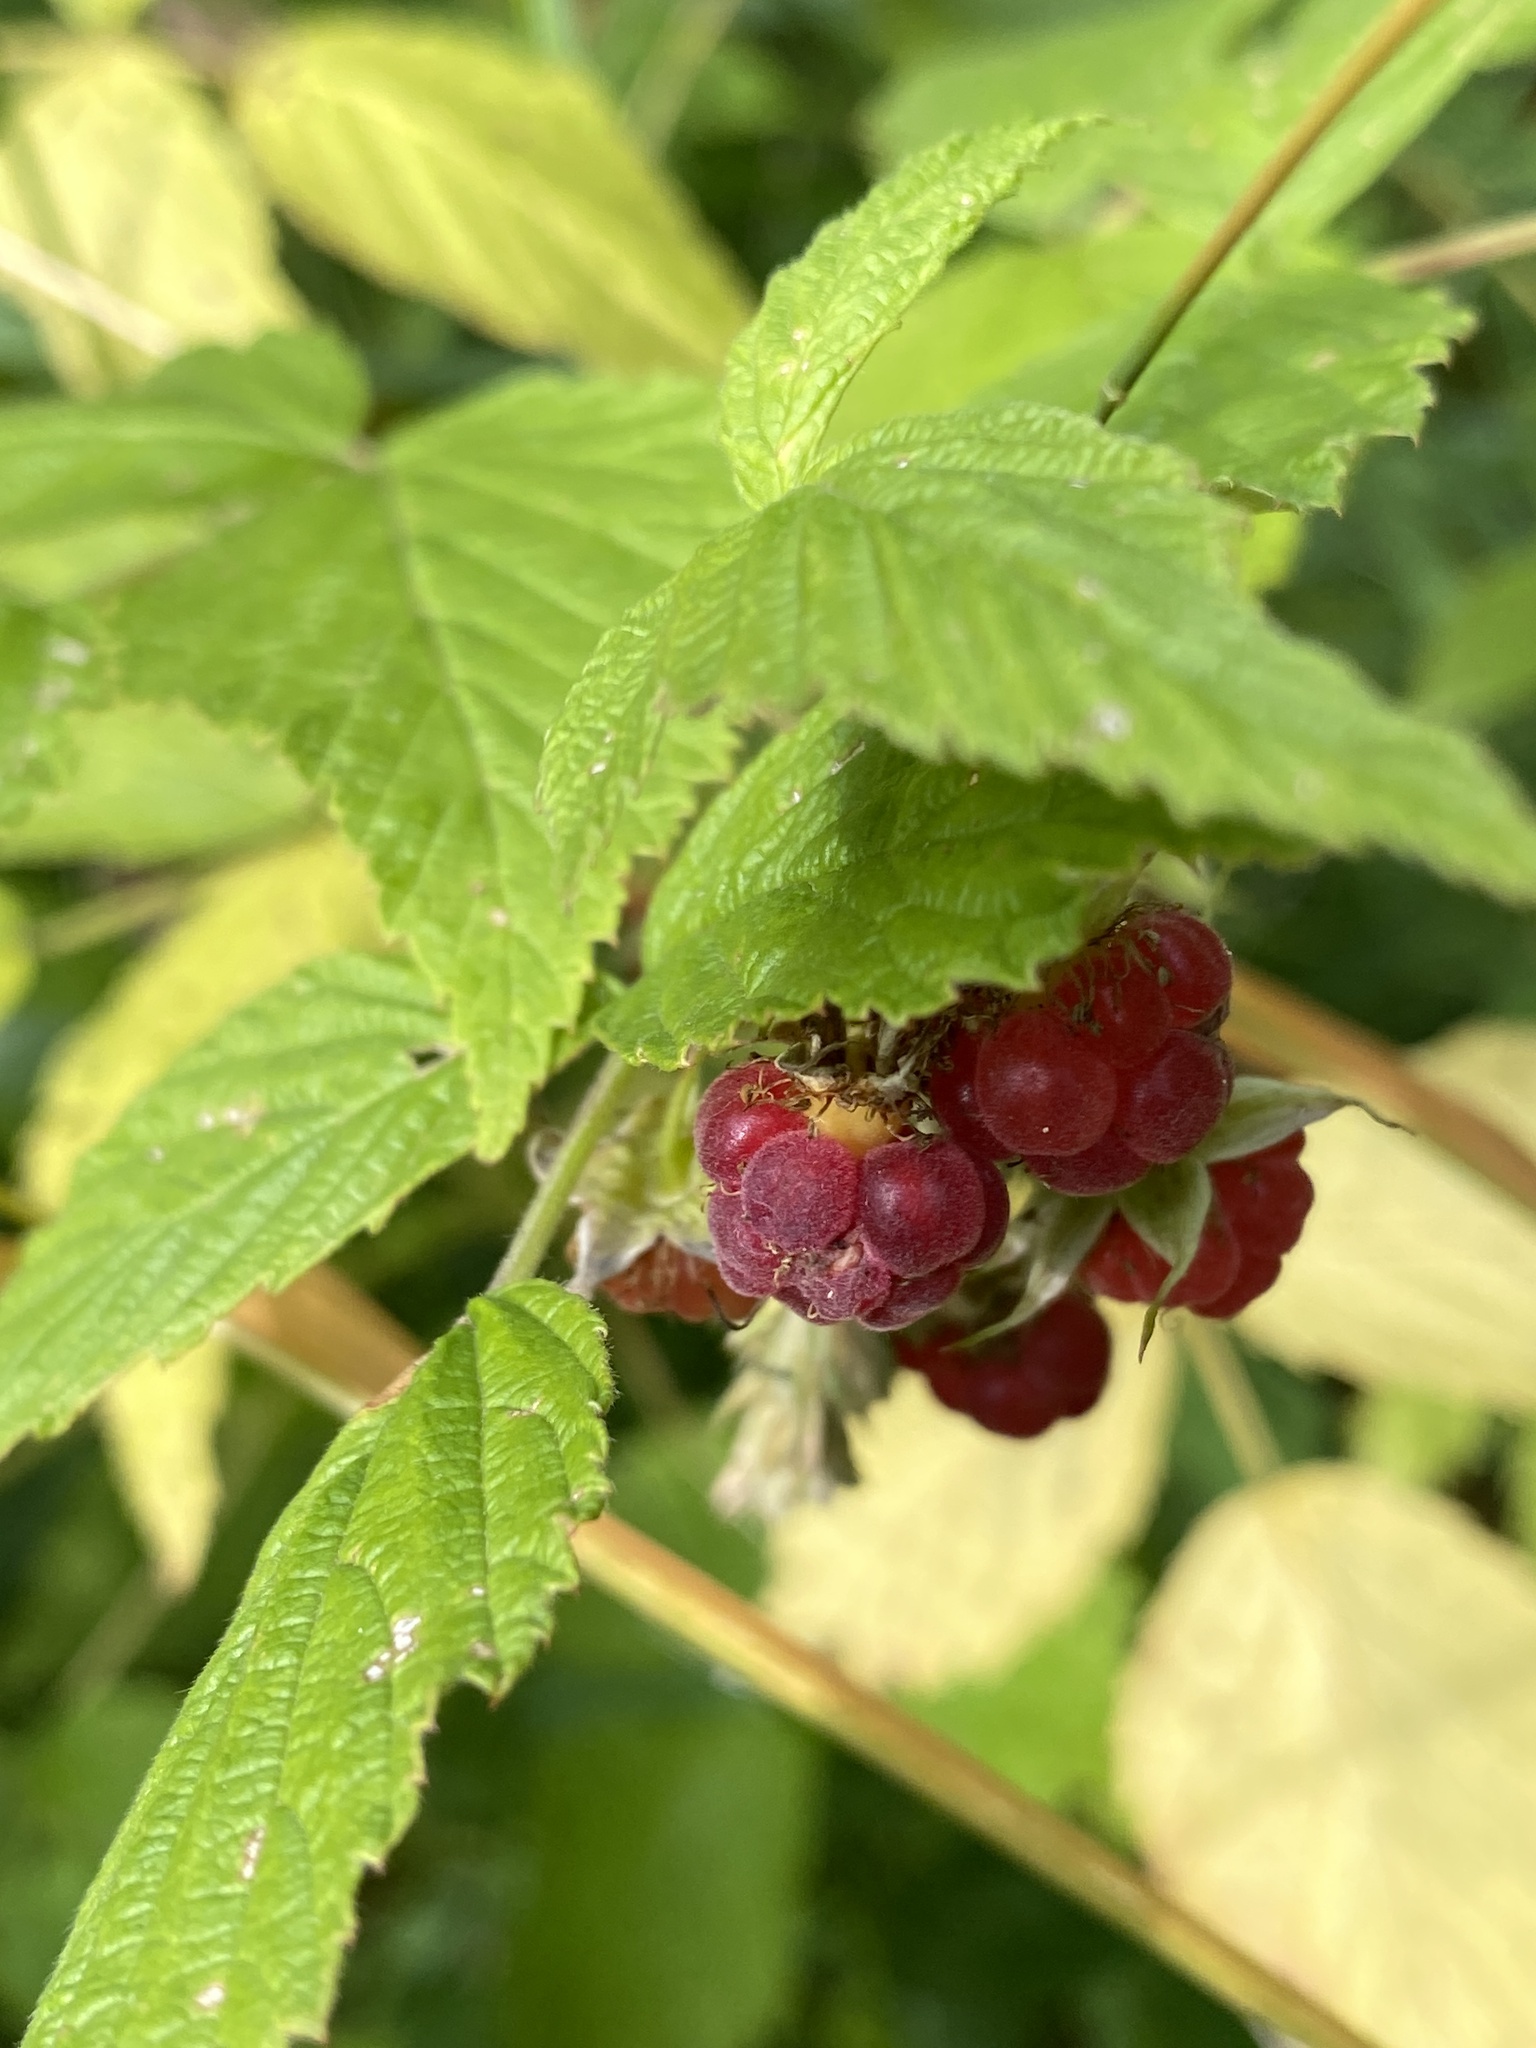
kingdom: Plantae
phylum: Tracheophyta
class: Magnoliopsida
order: Rosales
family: Rosaceae
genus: Rubus
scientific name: Rubus idaeus
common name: Raspberry
